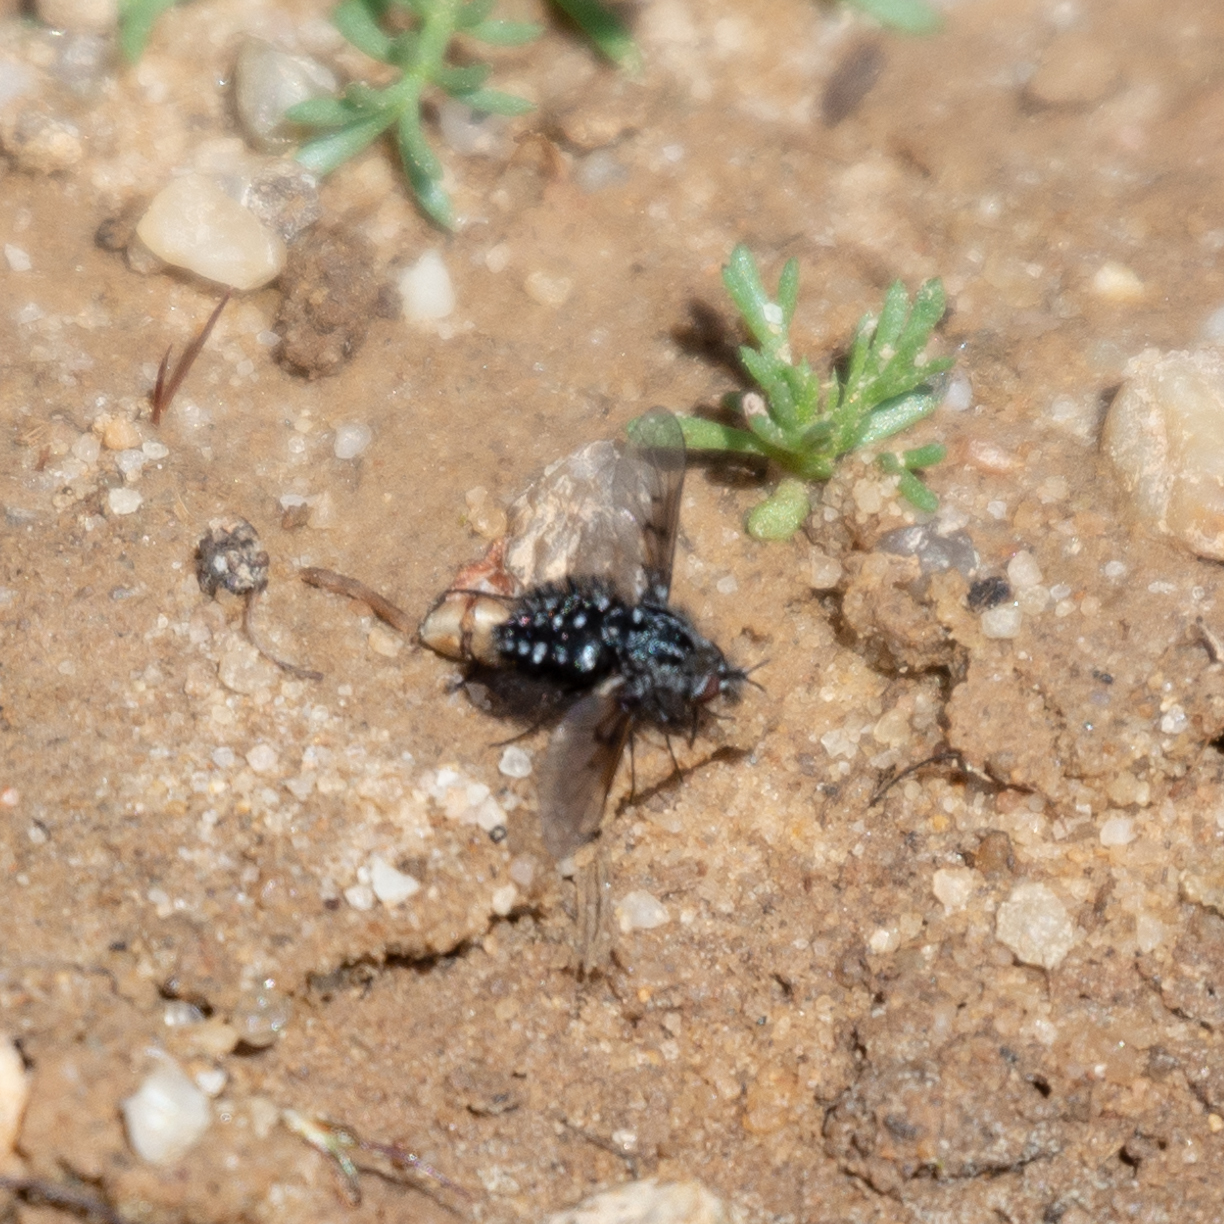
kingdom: Animalia
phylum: Arthropoda
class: Insecta
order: Diptera
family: Bombyliidae
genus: Bombylella
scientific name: Bombylella atra
